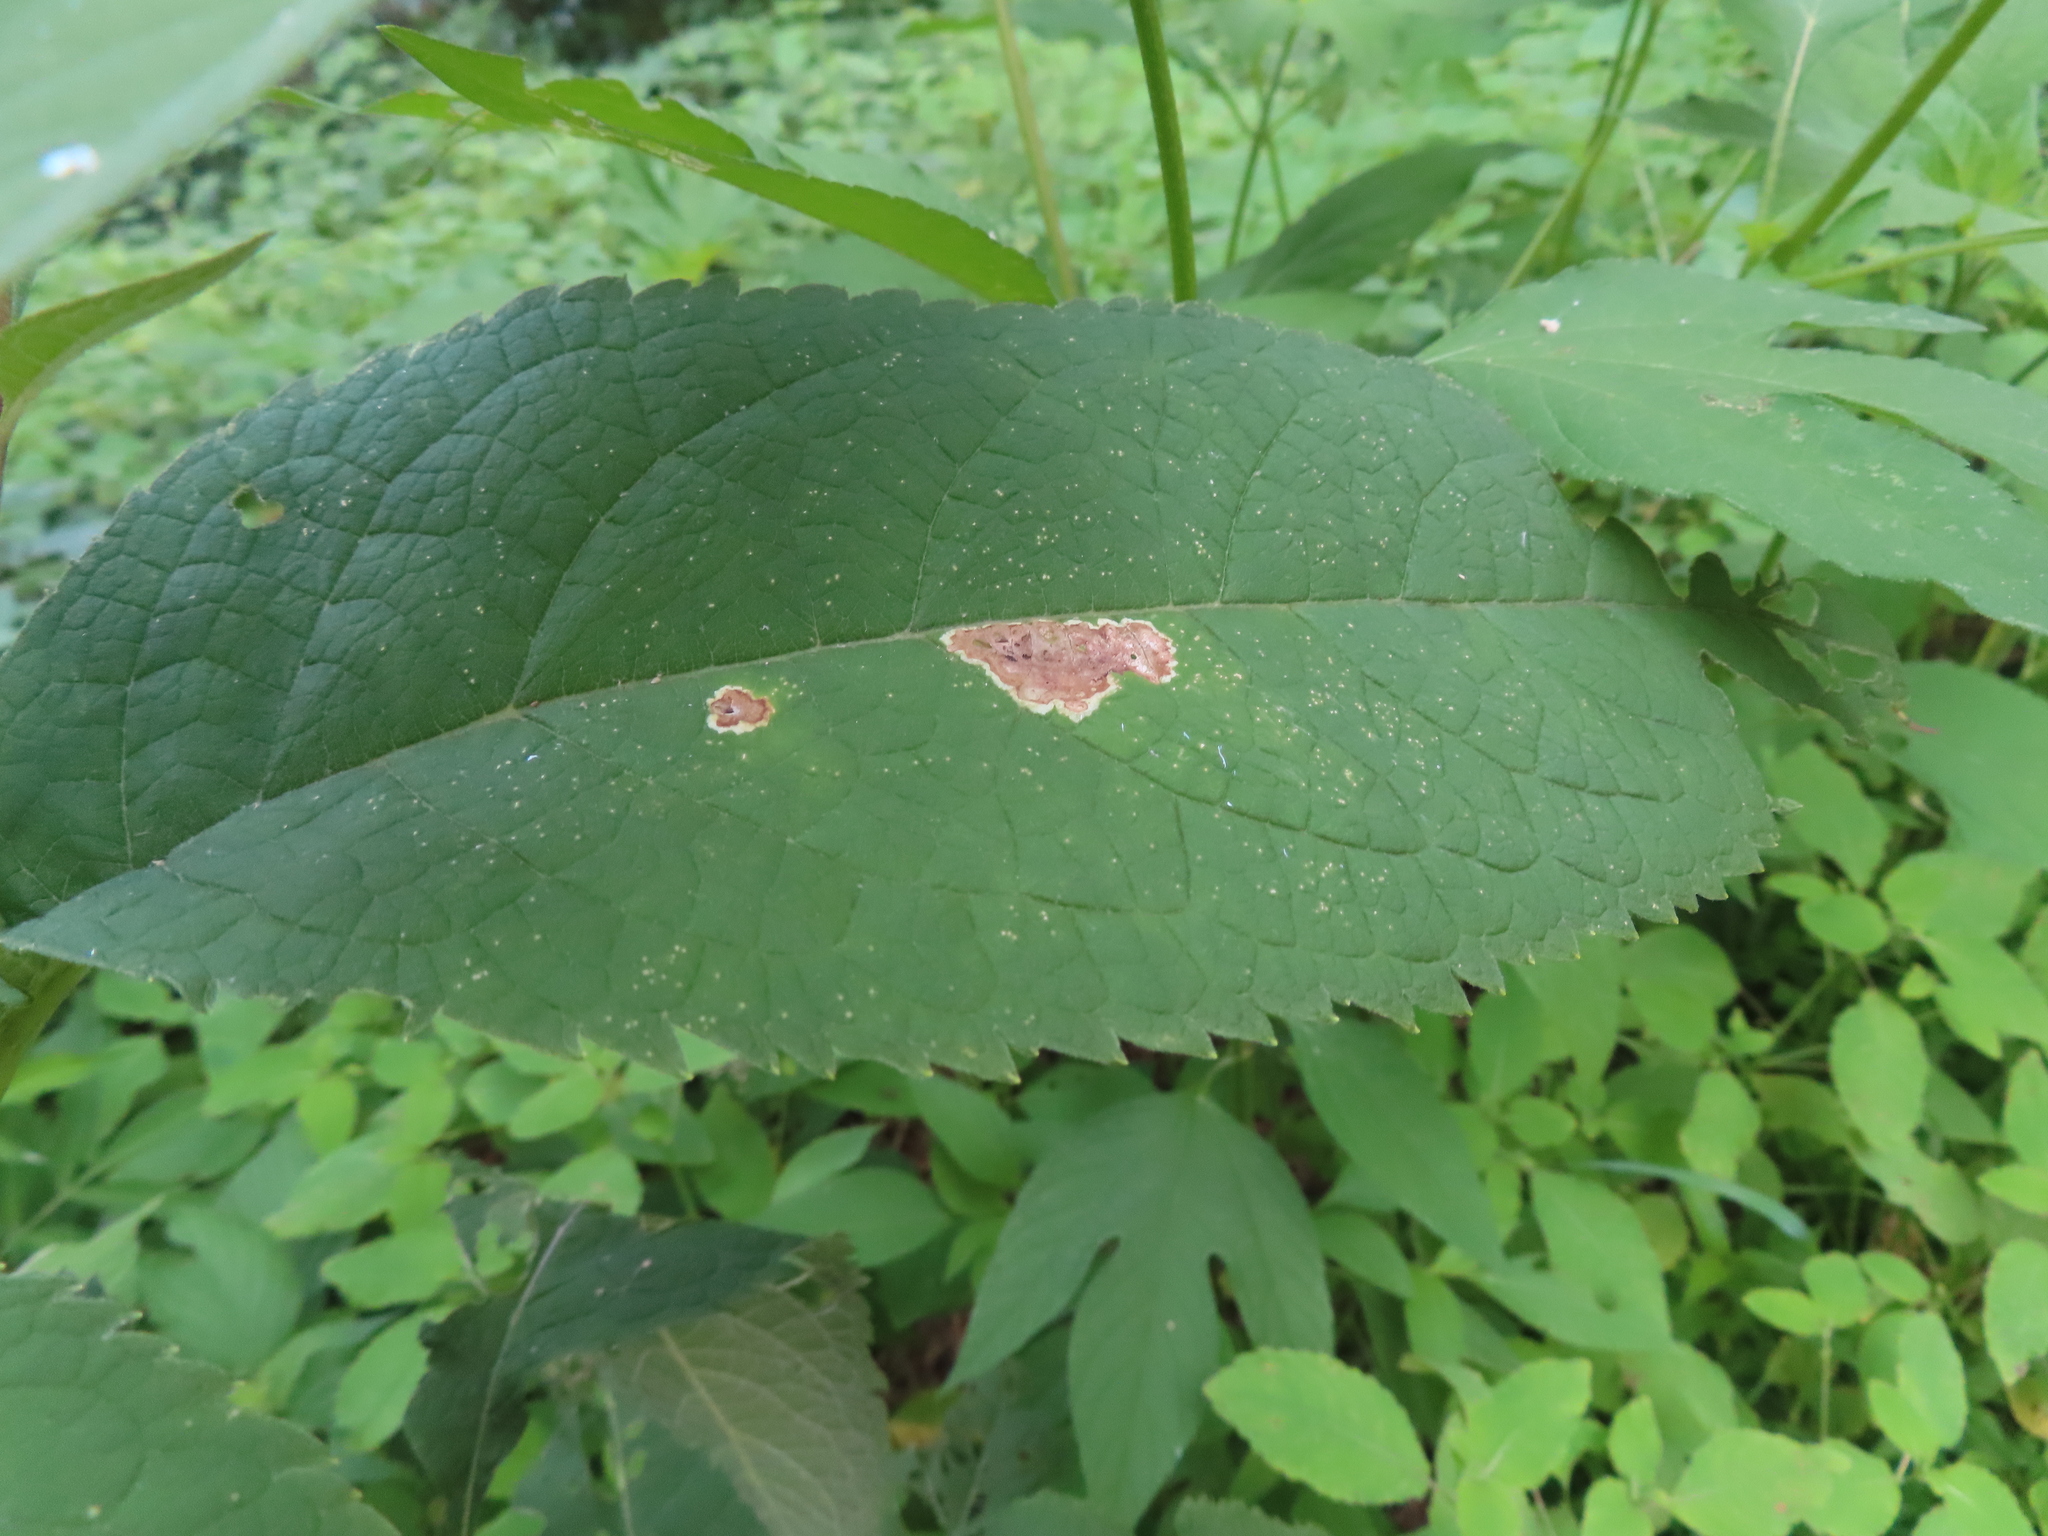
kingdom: Animalia
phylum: Arthropoda
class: Insecta
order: Diptera
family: Agromyzidae
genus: Calycomyza
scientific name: Calycomyza flavinotum
